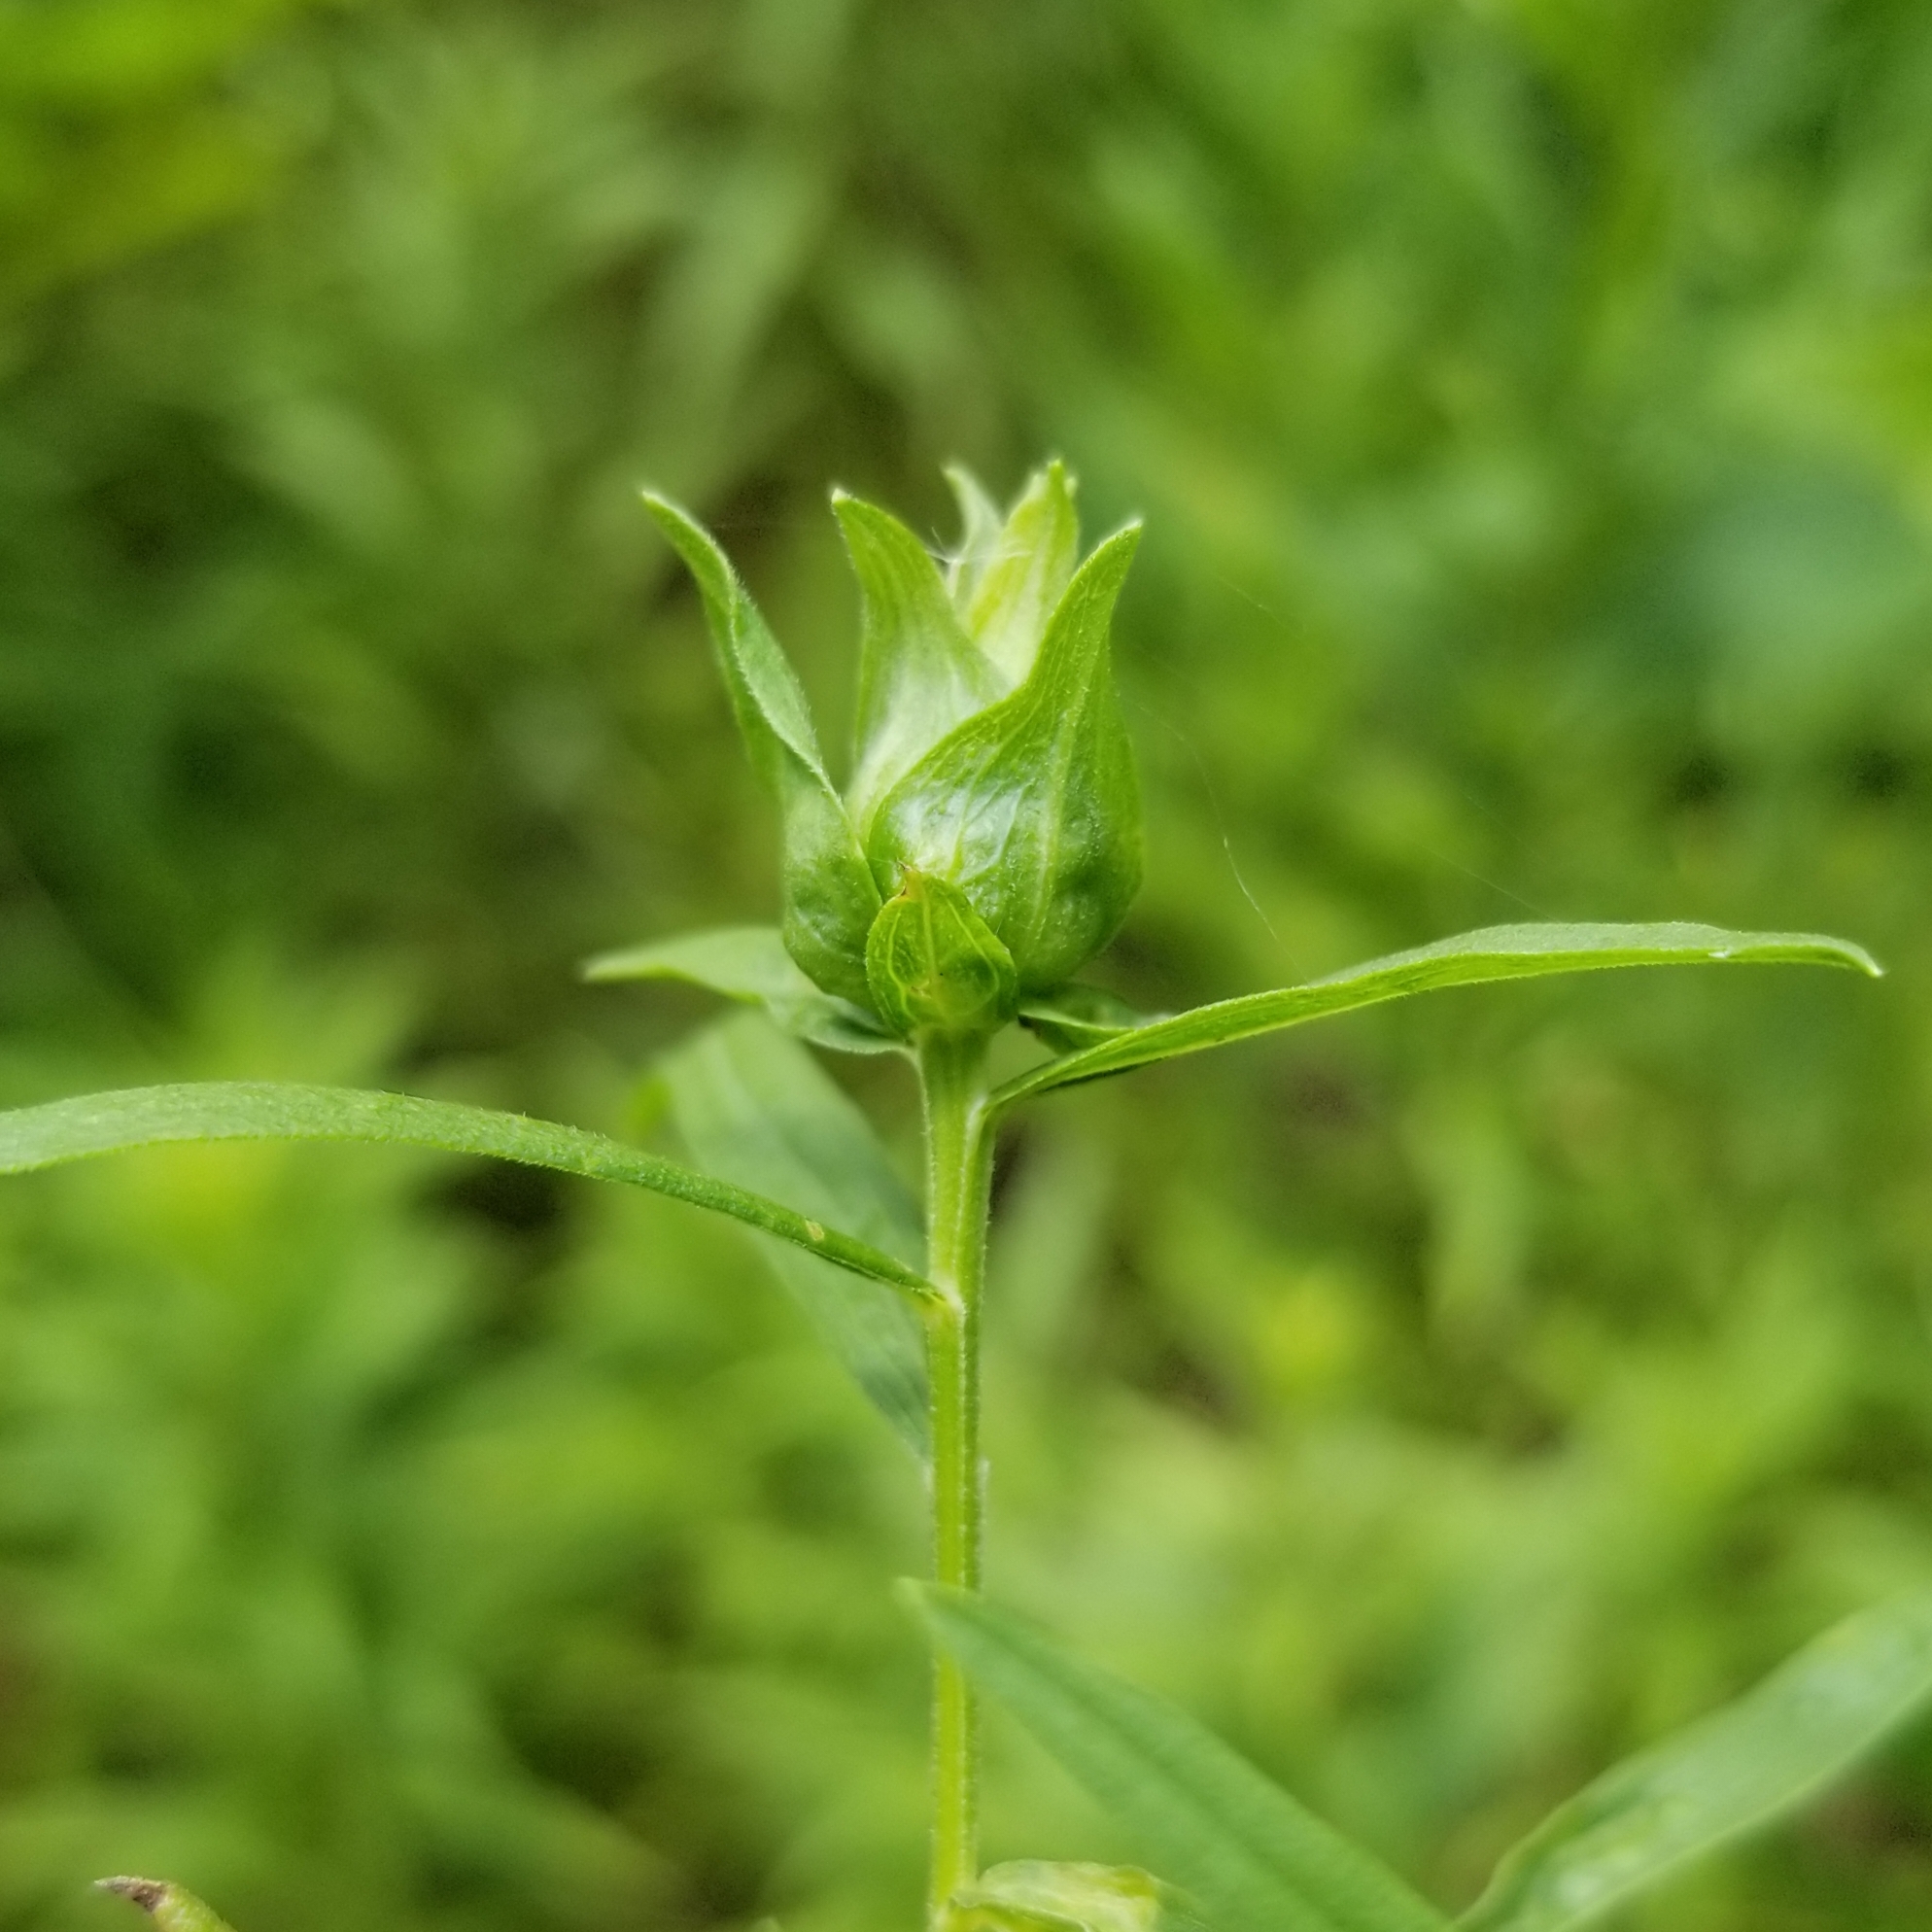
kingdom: Animalia
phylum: Arthropoda
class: Insecta
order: Diptera
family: Cecidomyiidae
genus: Asphondylia
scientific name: Asphondylia pseudorosa
